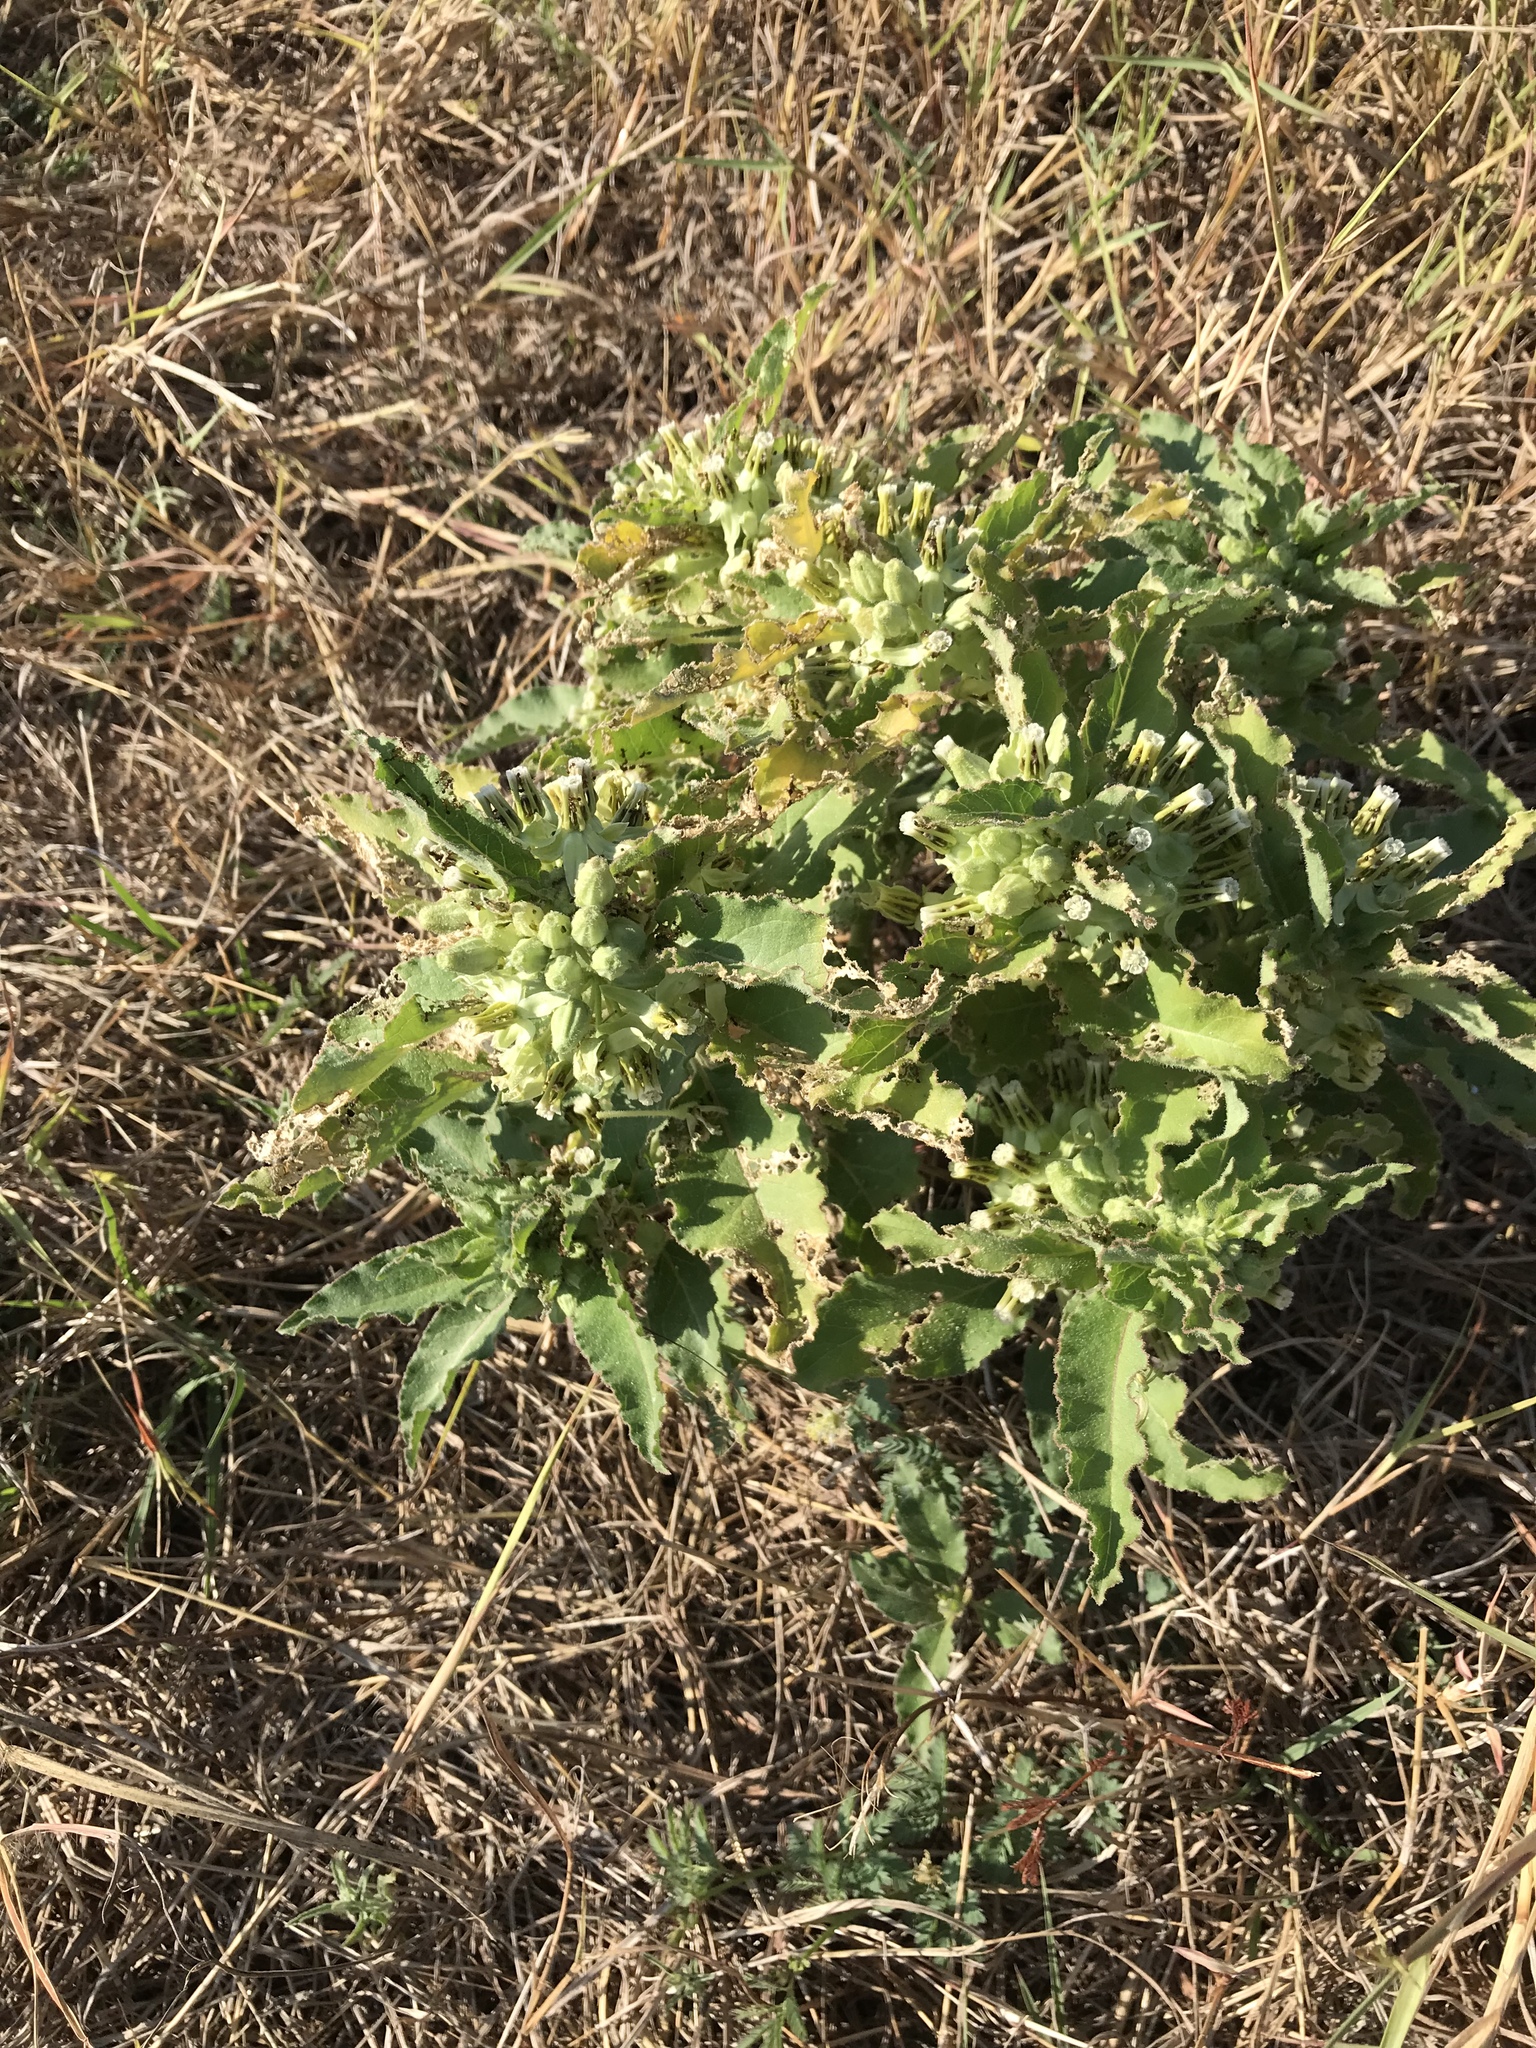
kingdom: Plantae
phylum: Tracheophyta
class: Magnoliopsida
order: Gentianales
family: Apocynaceae
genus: Asclepias
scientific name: Asclepias oenotheroides
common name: Zizotes milkweed
